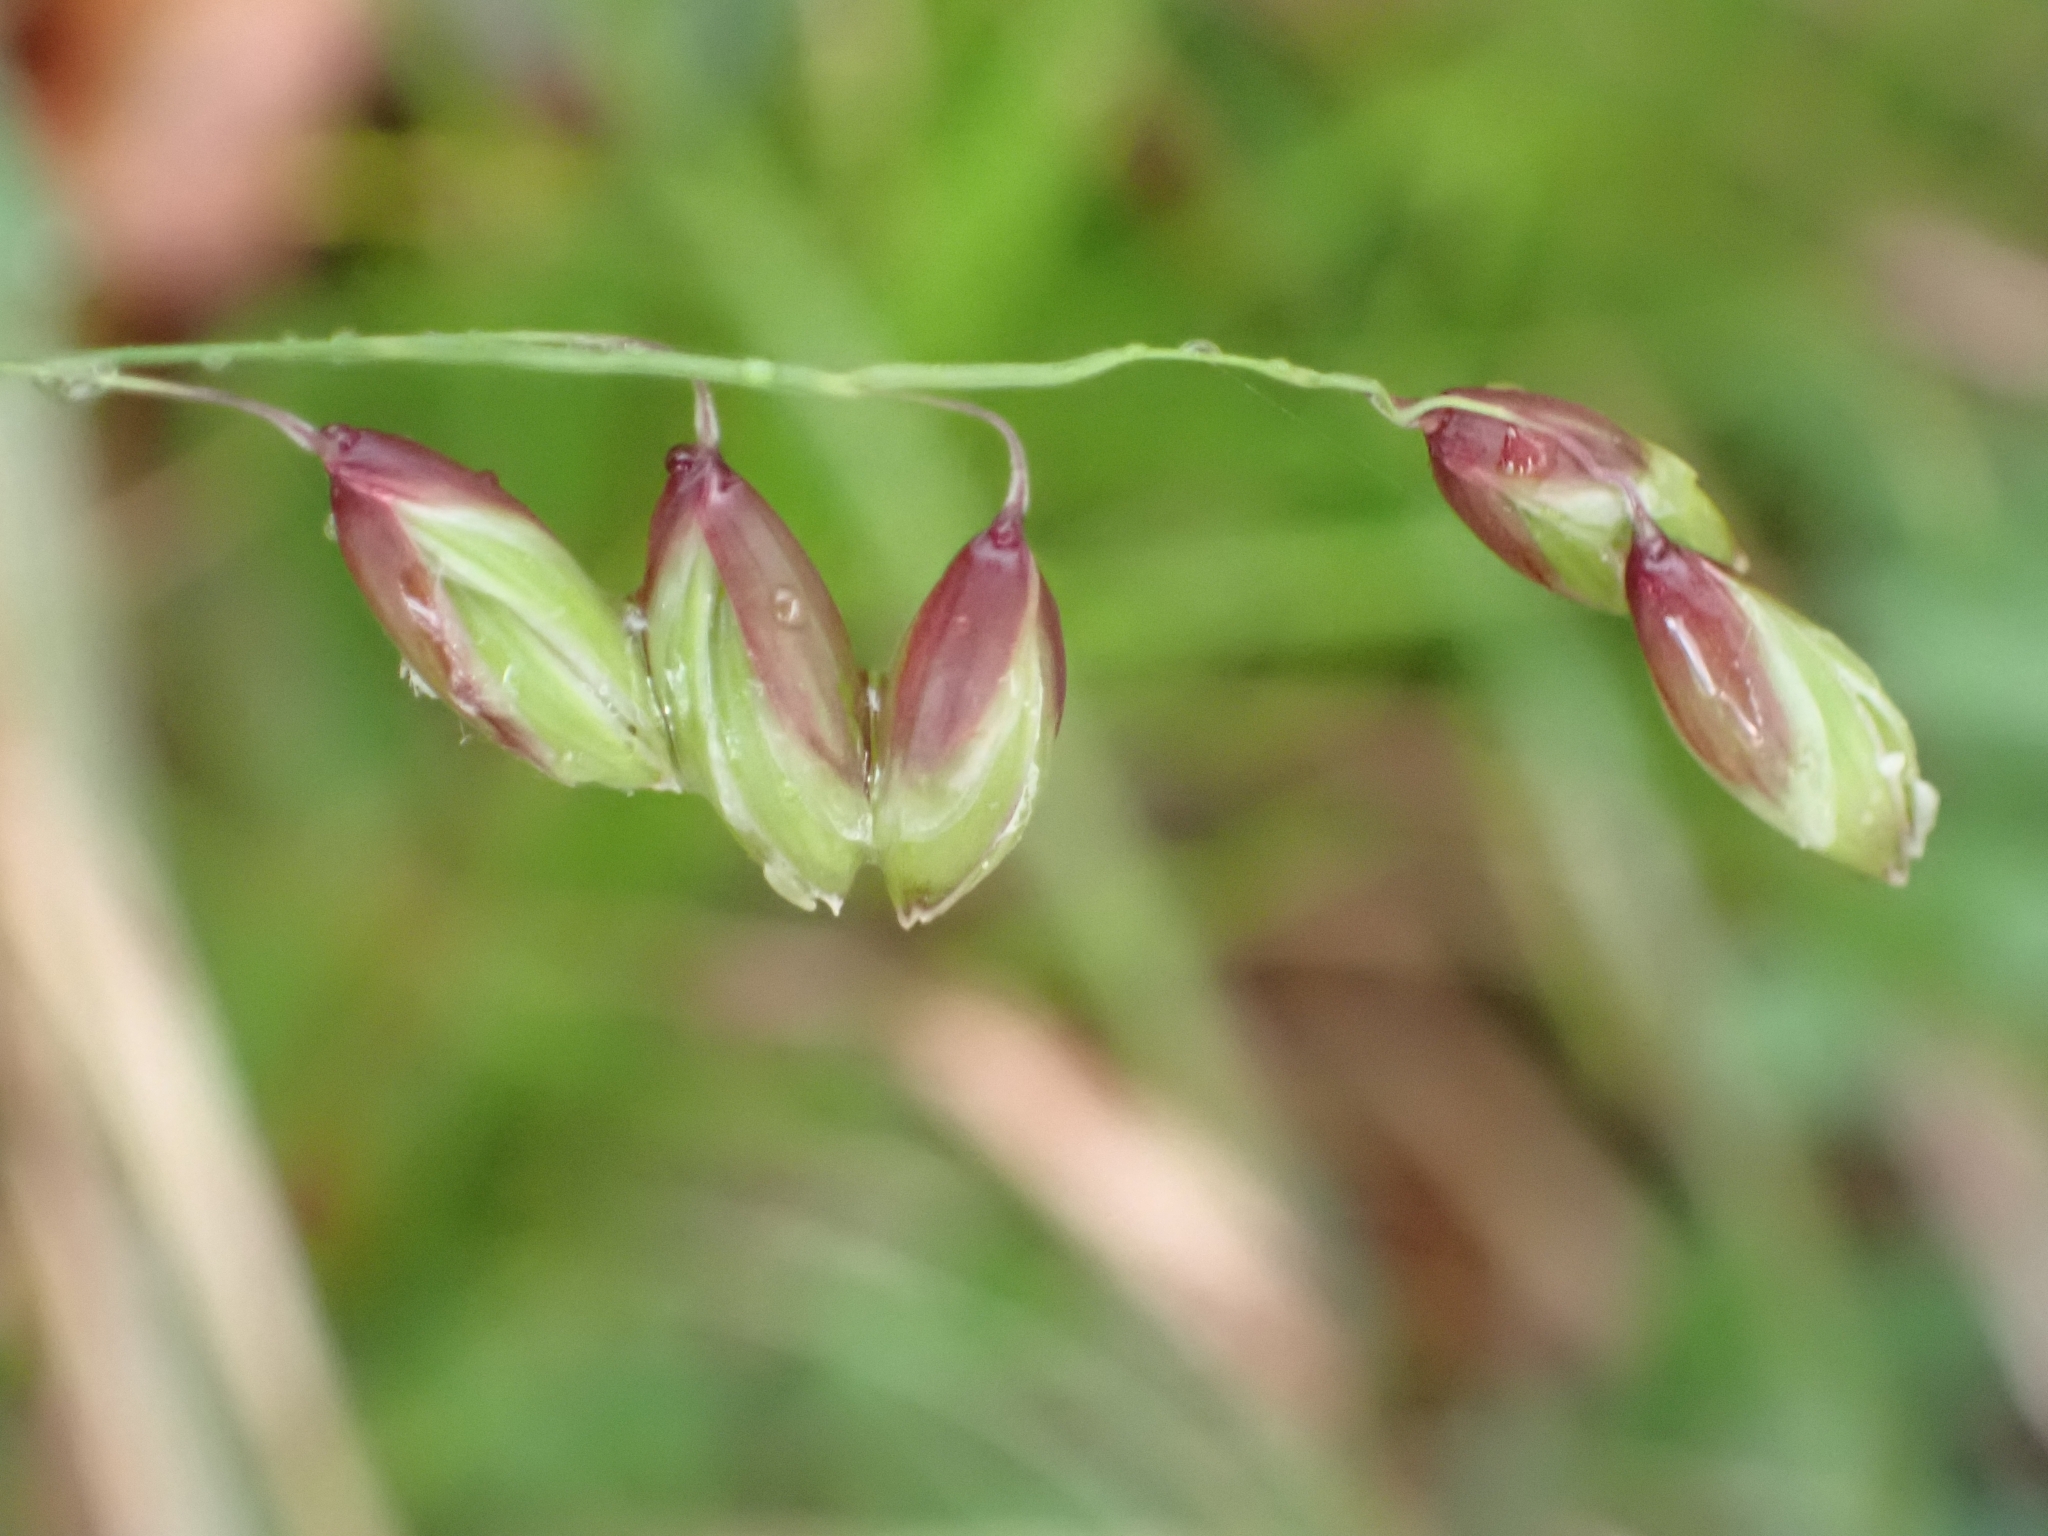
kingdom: Plantae
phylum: Tracheophyta
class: Liliopsida
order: Poales
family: Poaceae
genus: Melica
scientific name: Melica nutans
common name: Mountain melick
